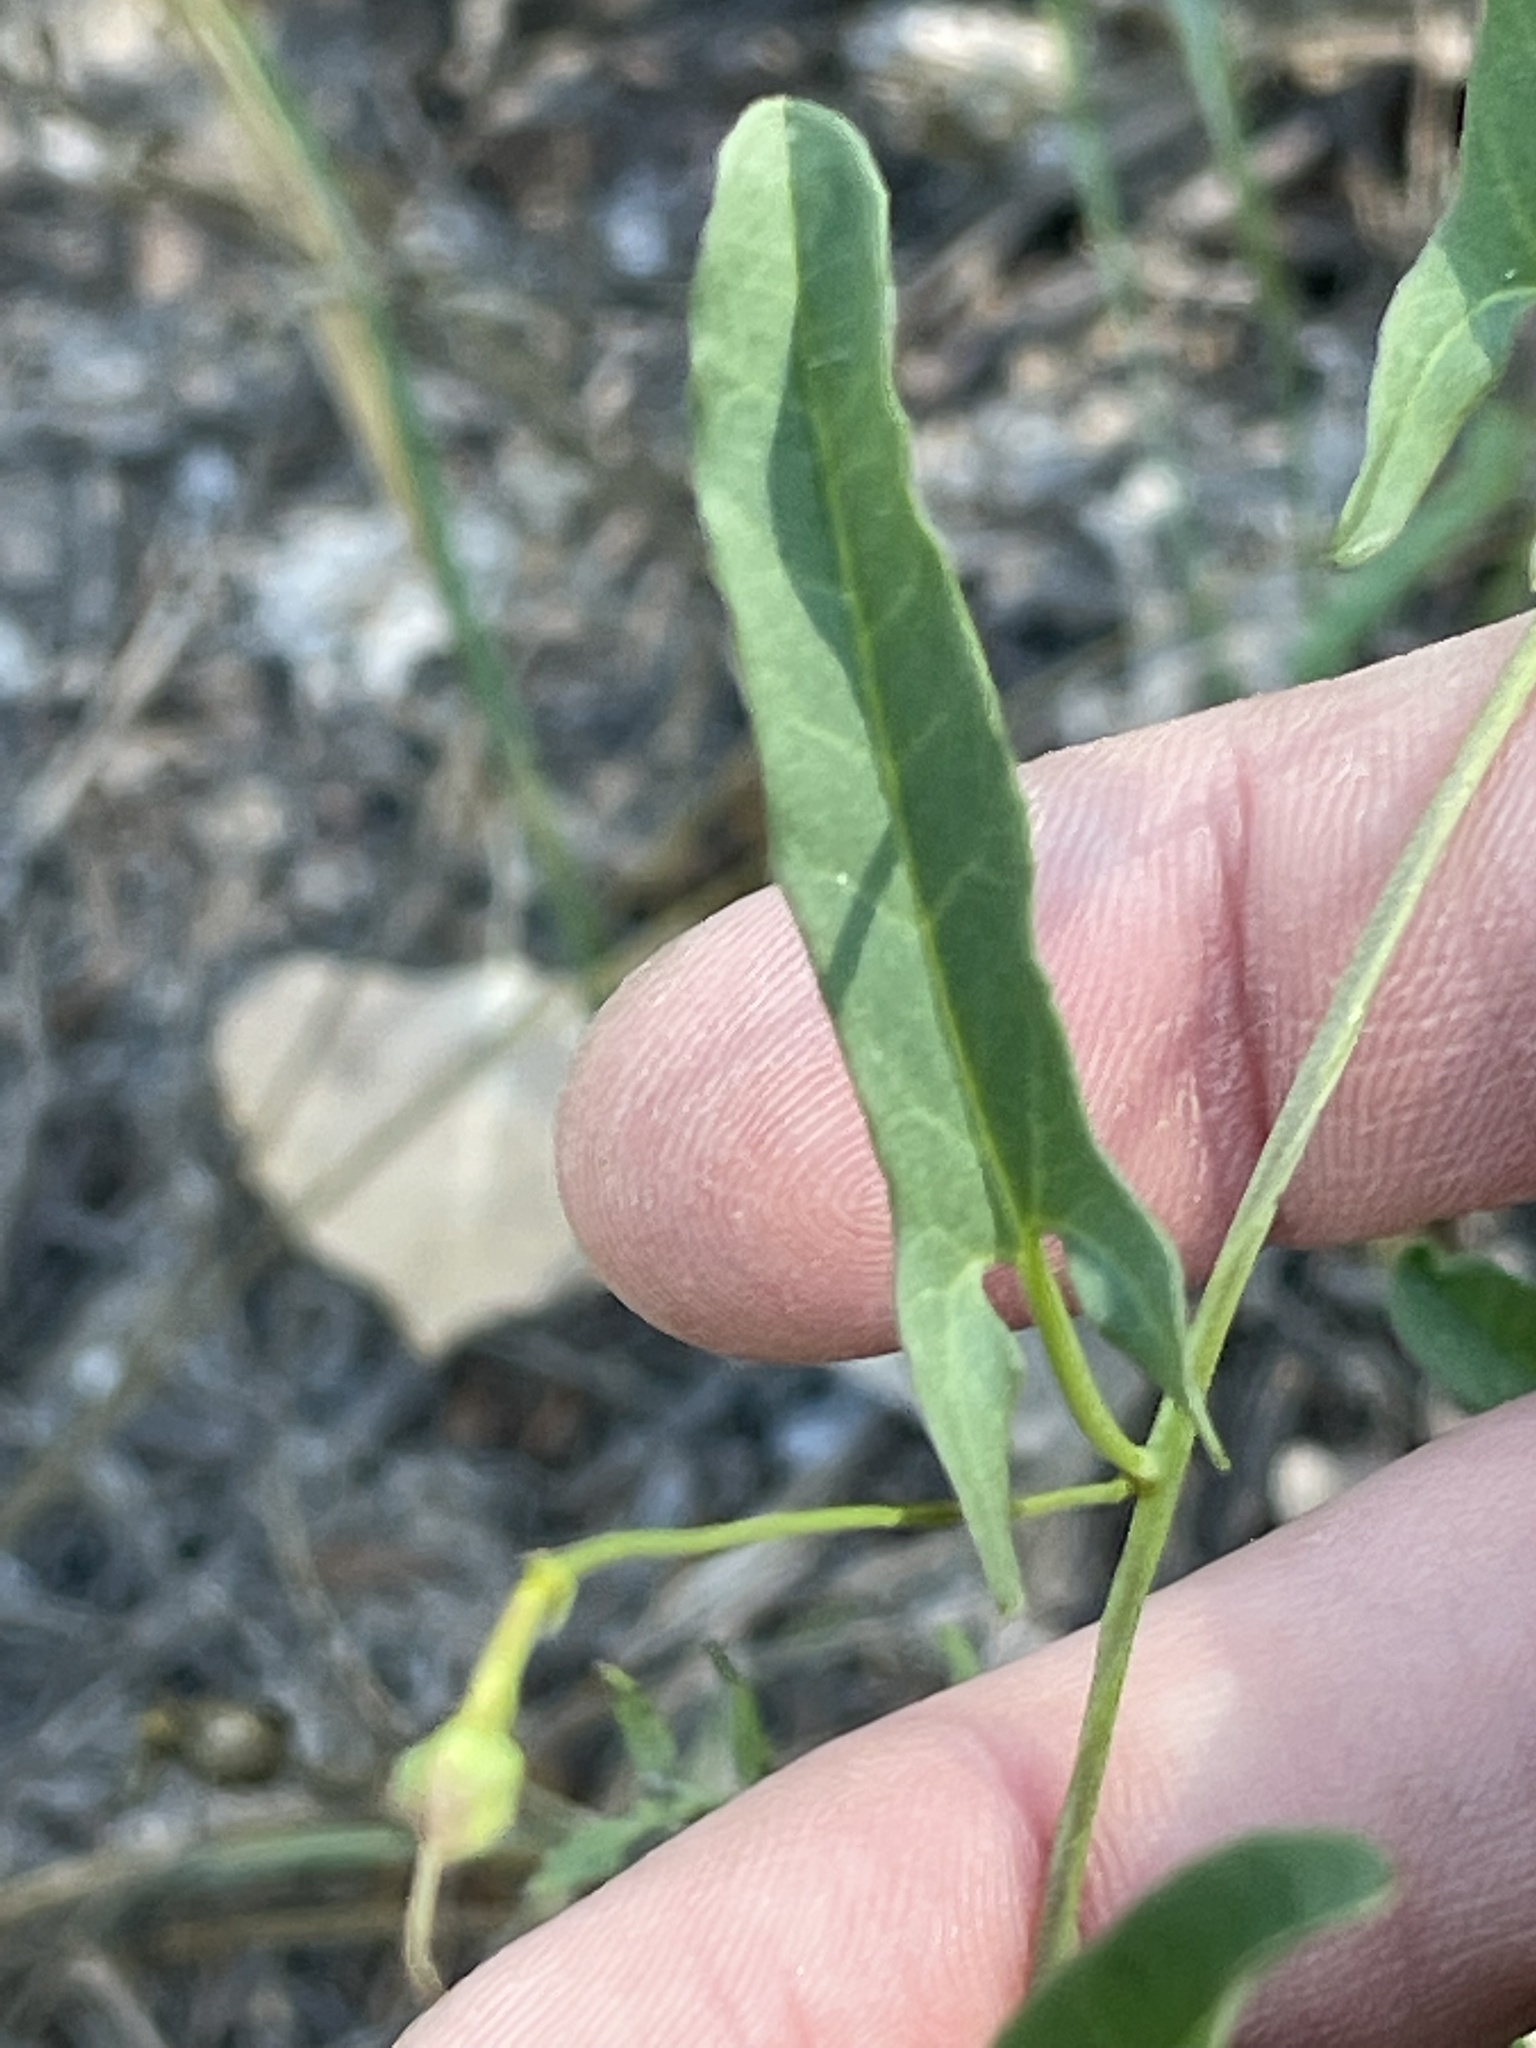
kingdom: Plantae
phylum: Tracheophyta
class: Magnoliopsida
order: Solanales
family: Convolvulaceae
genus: Convolvulus
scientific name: Convolvulus arvensis
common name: Field bindweed
